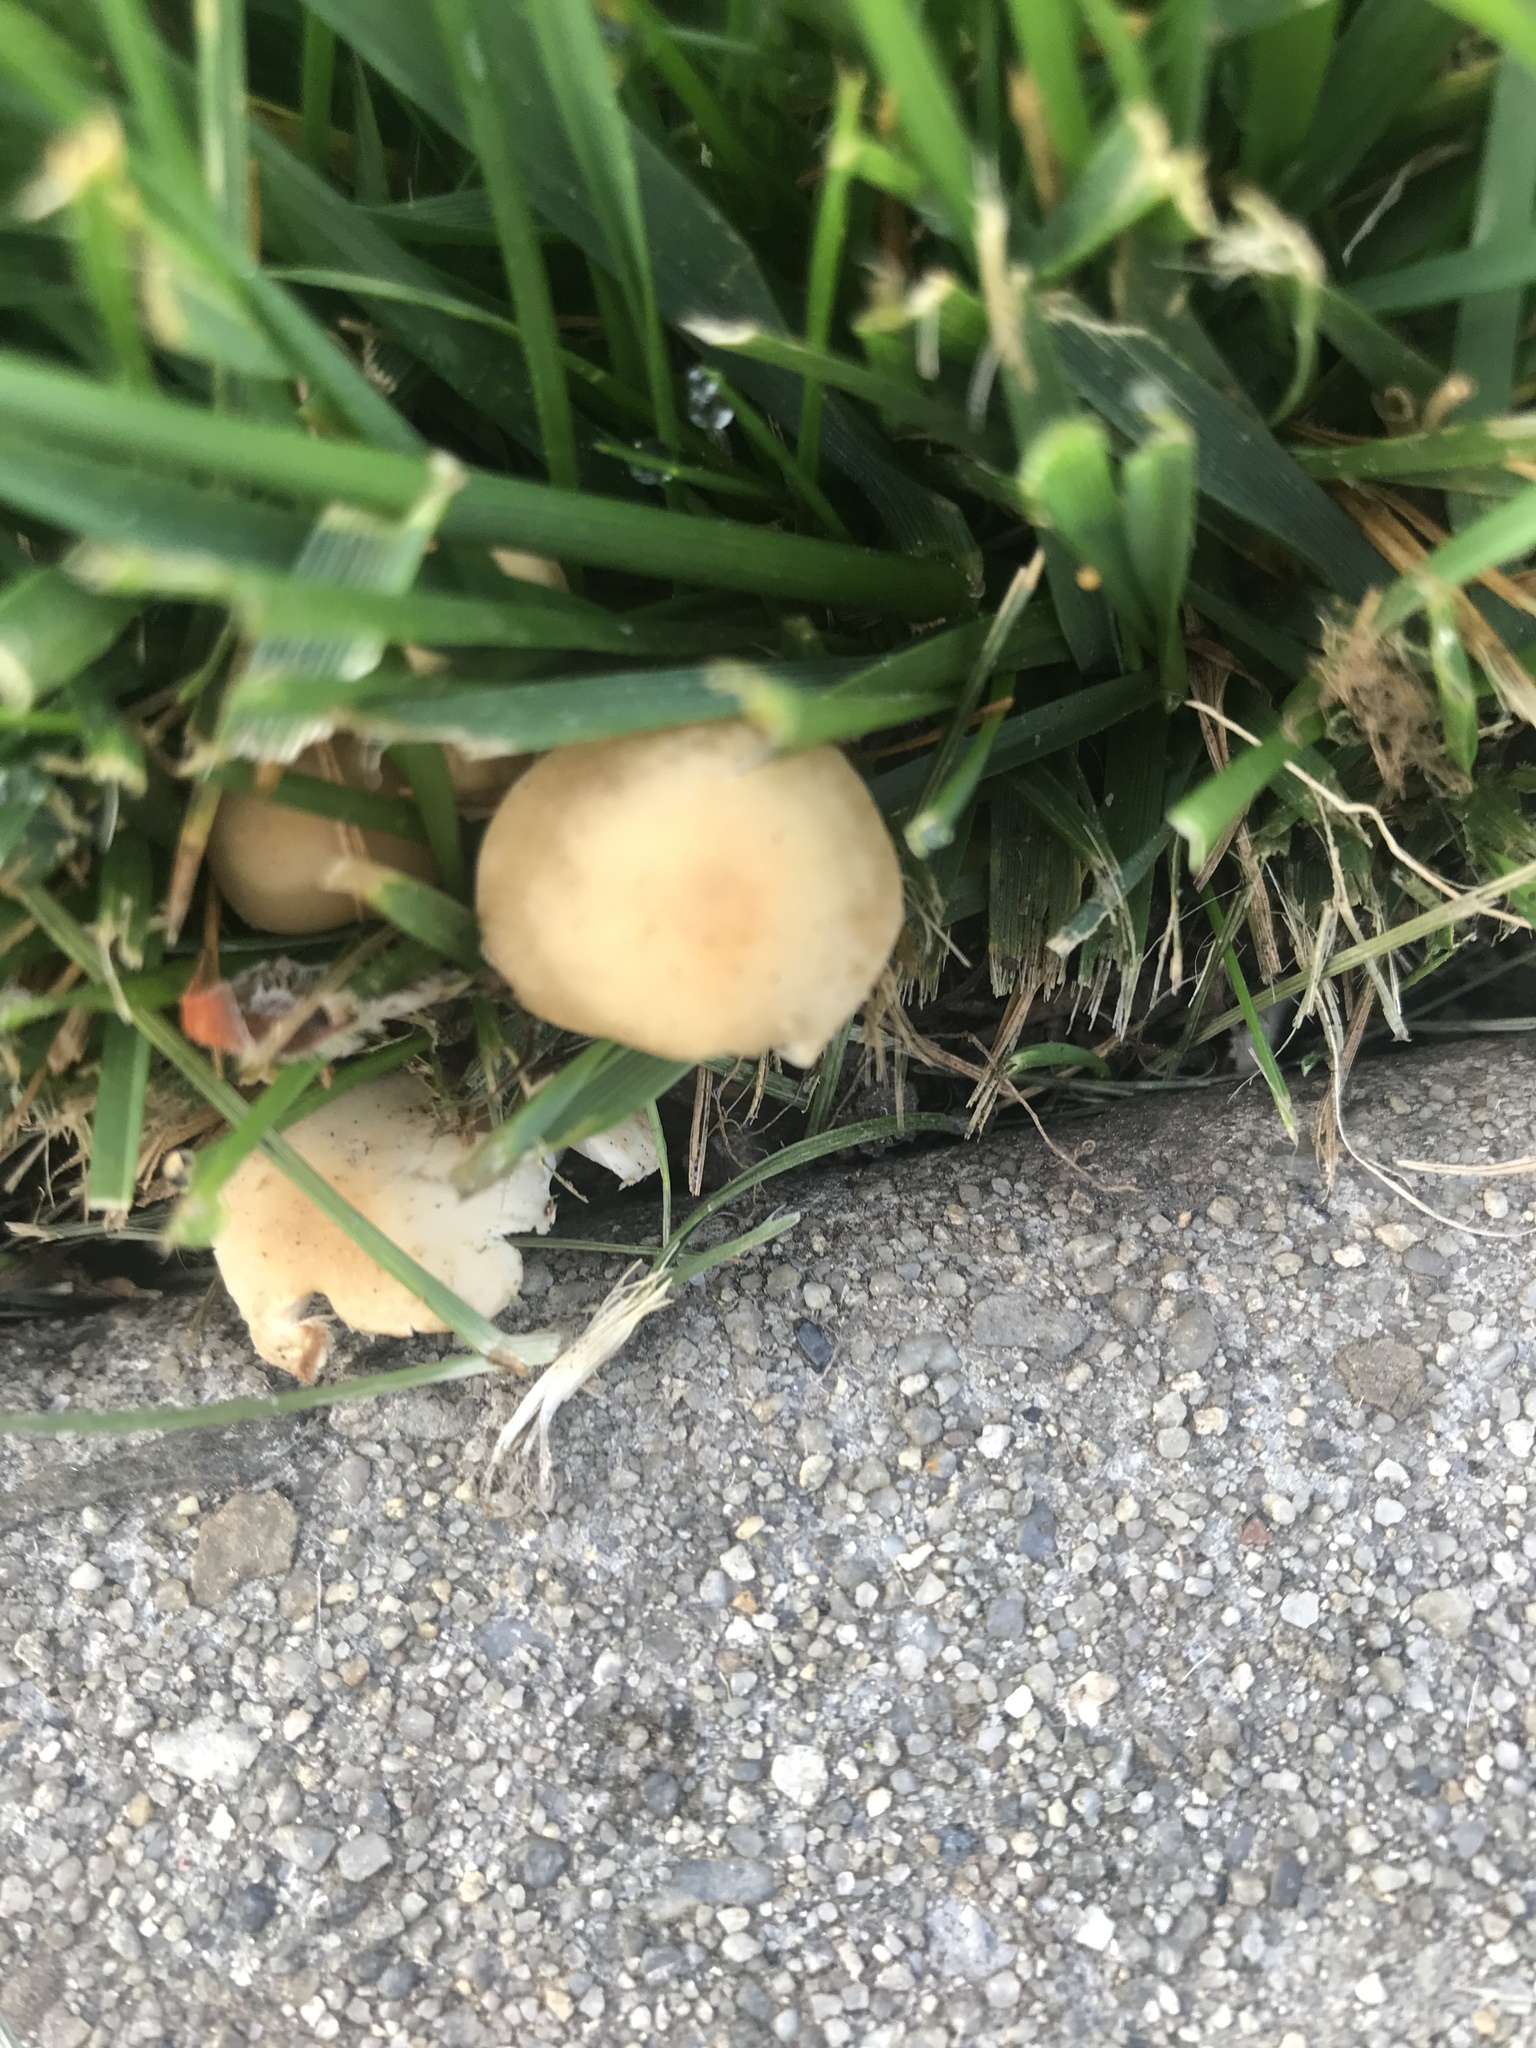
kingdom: Fungi
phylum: Basidiomycota
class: Agaricomycetes
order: Agaricales
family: Strophariaceae
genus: Agrocybe
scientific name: Agrocybe putaminum
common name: Mulch fieldcap
